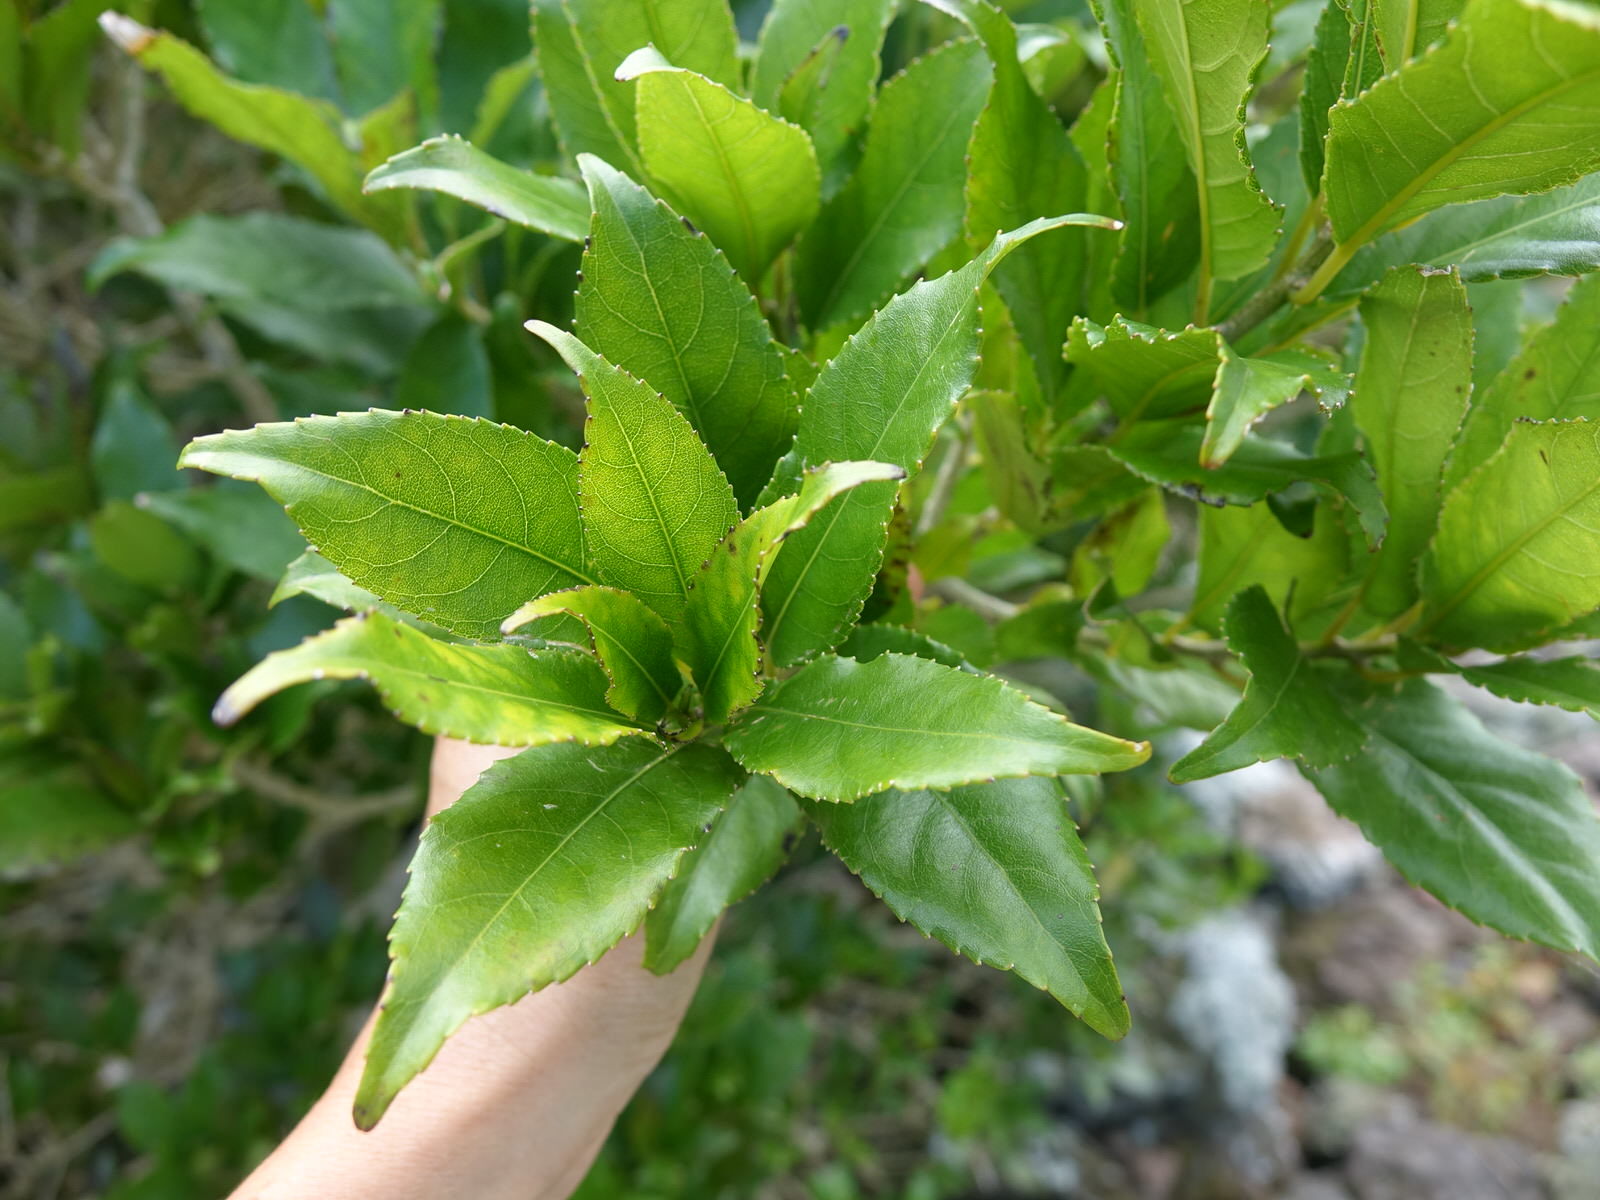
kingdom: Plantae
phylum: Tracheophyta
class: Magnoliopsida
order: Malpighiales
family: Violaceae
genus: Melicytus
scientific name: Melicytus ramiflorus
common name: Mahoe
